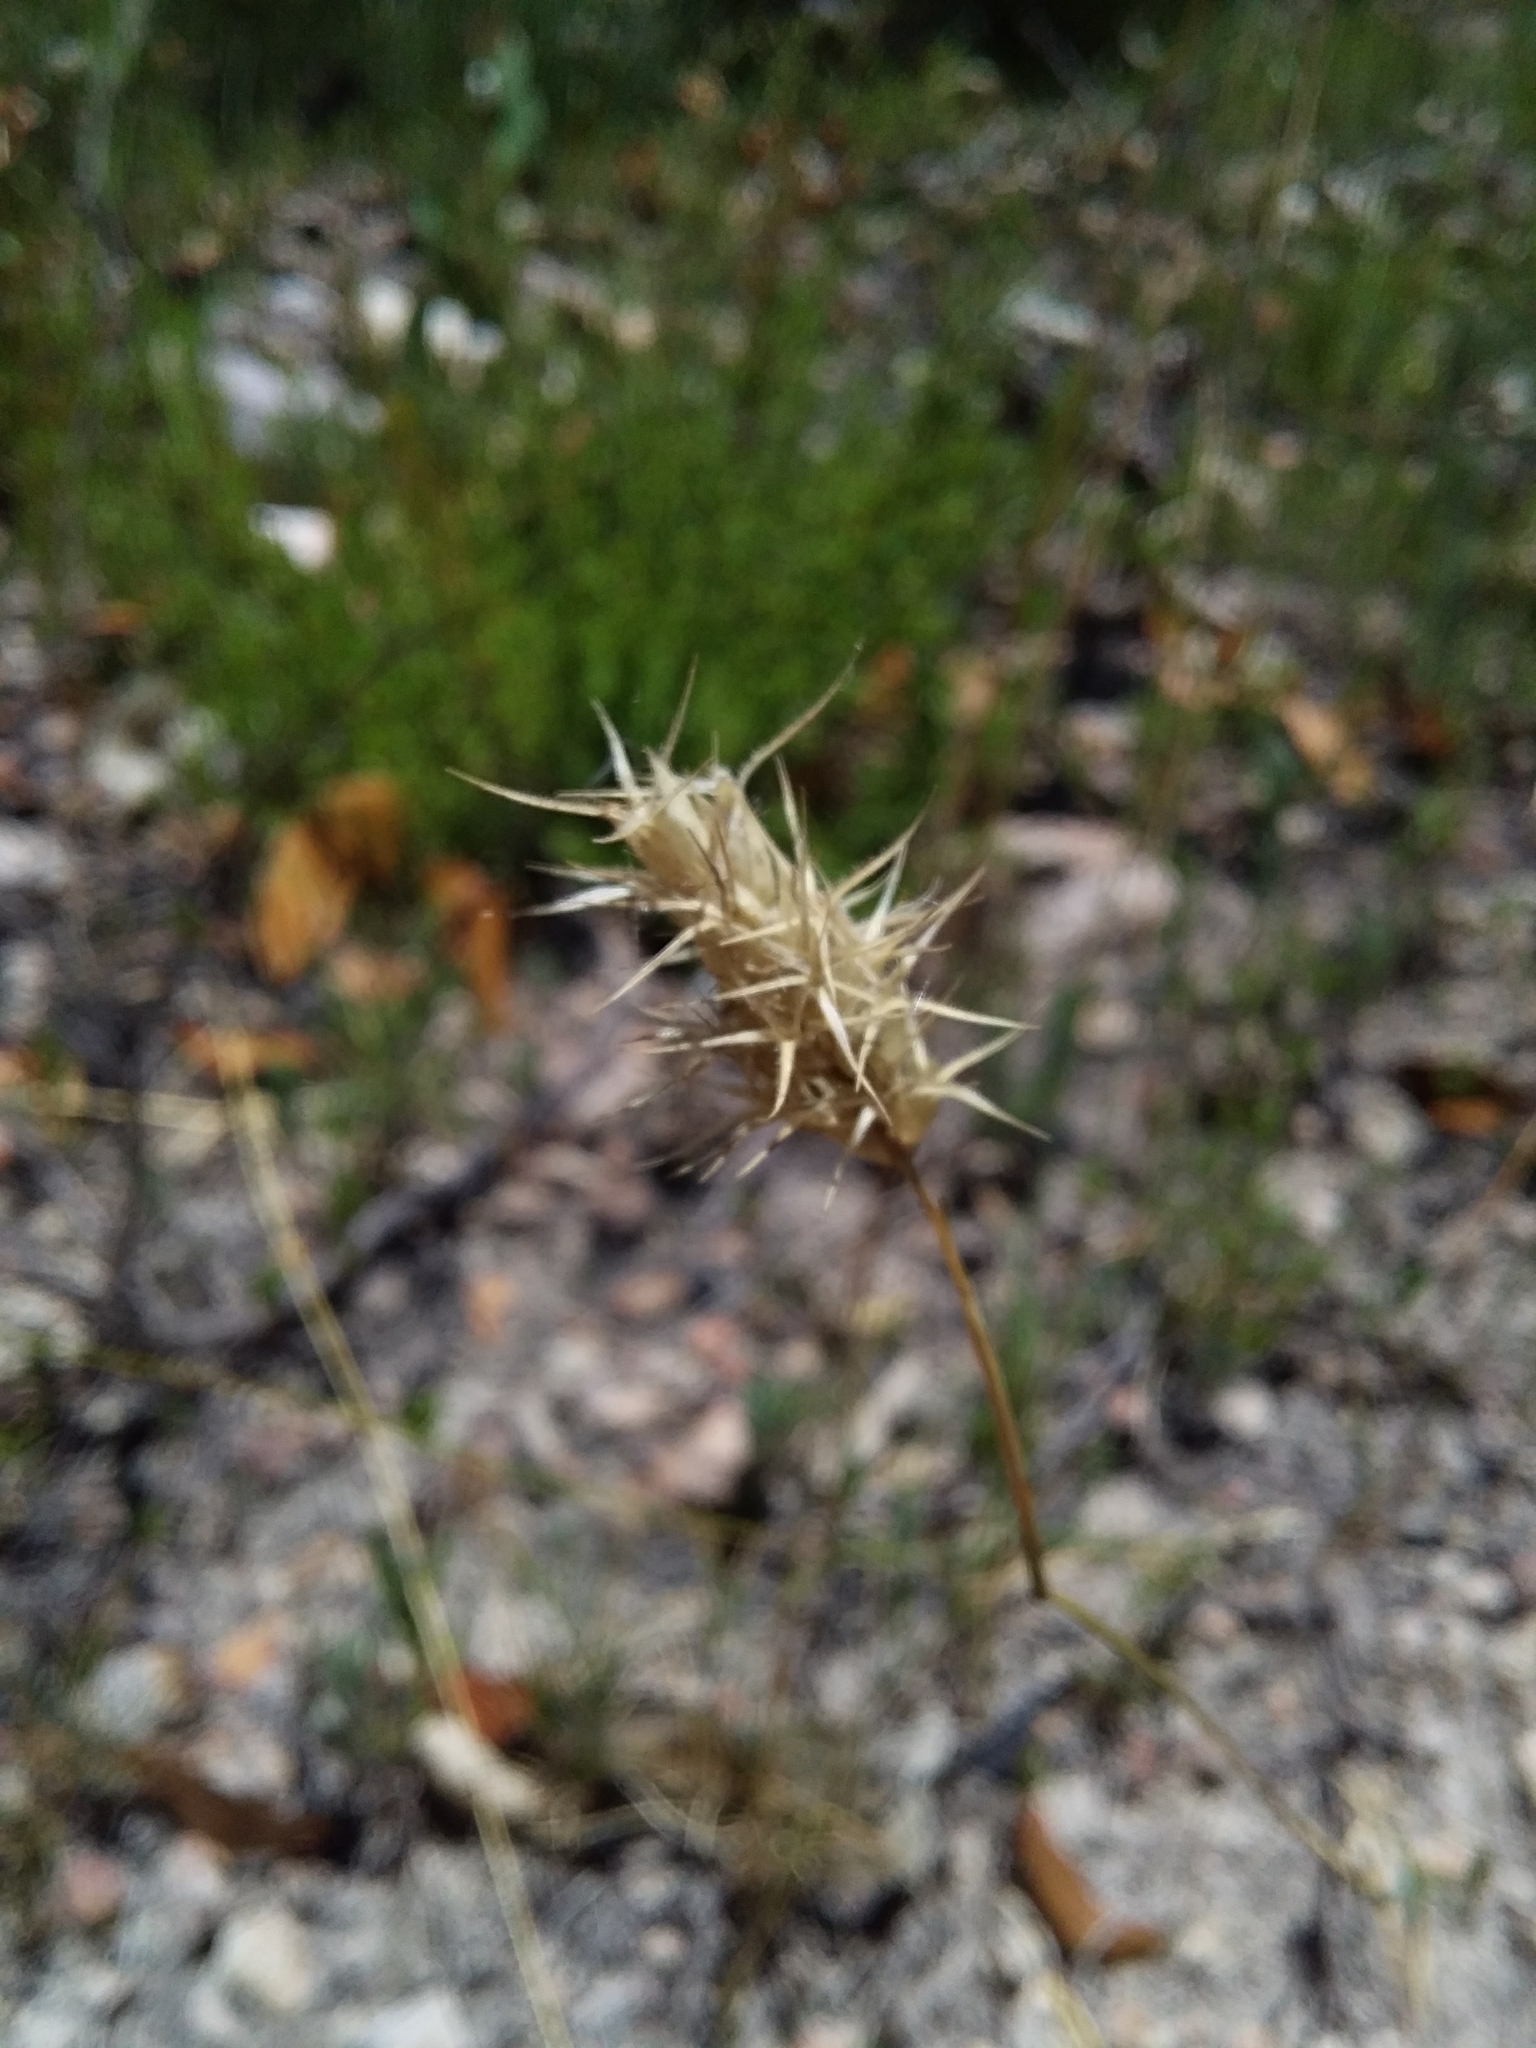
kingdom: Plantae
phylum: Tracheophyta
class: Liliopsida
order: Poales
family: Poaceae
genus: Neurachne
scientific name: Neurachne alopecuroidea
